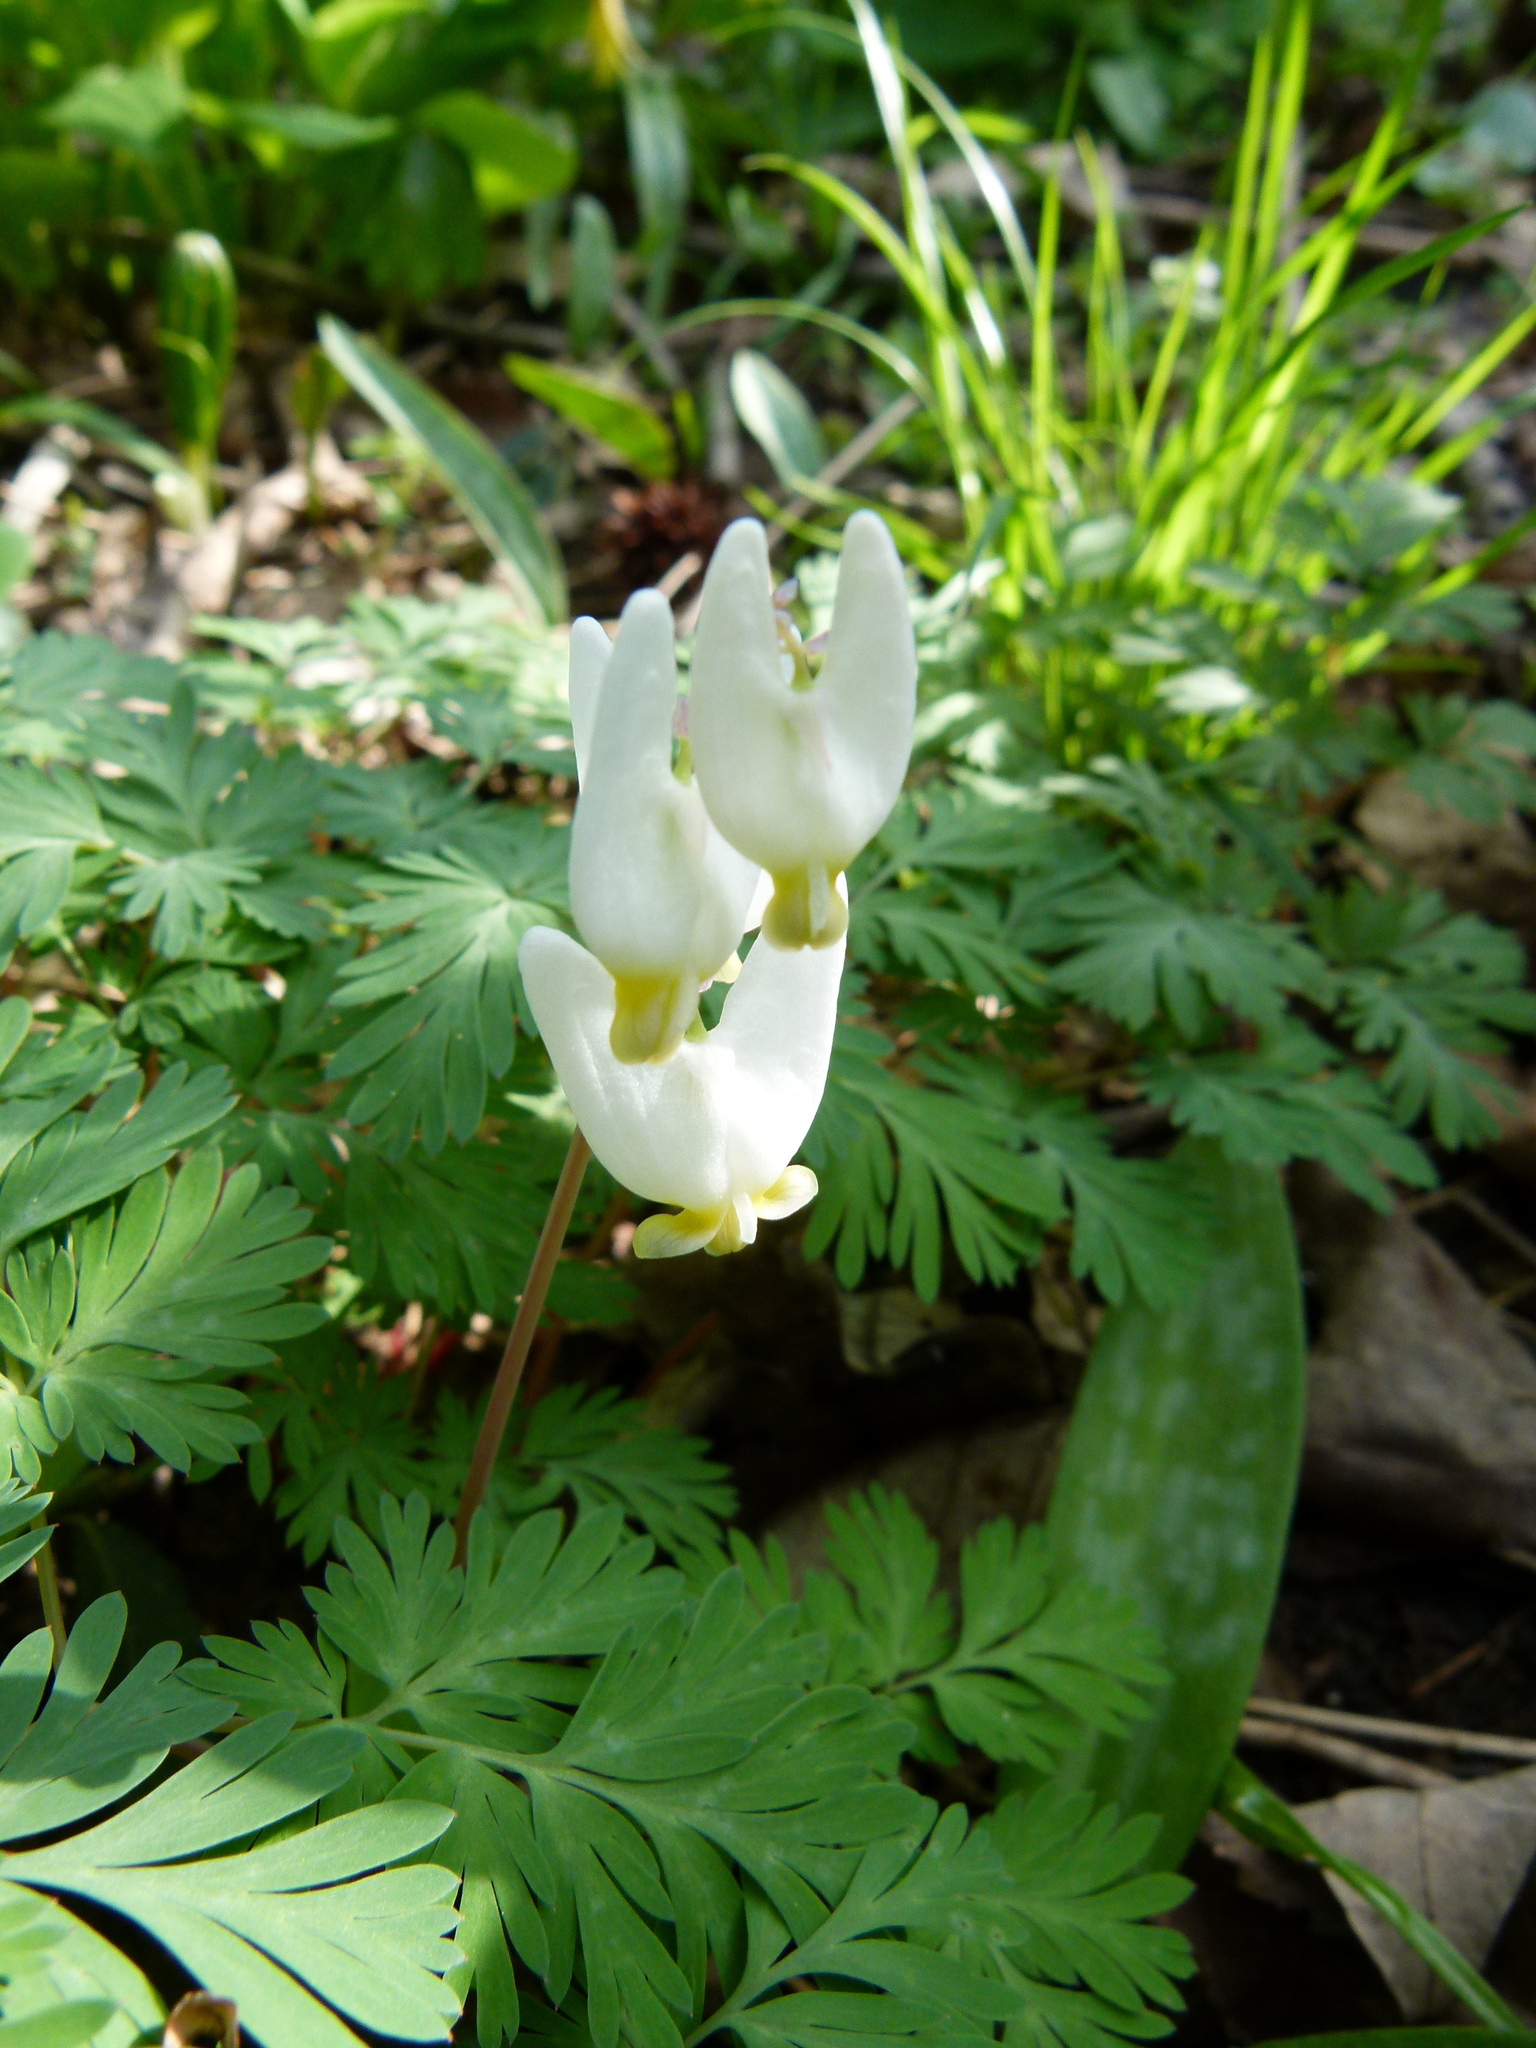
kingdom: Plantae
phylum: Tracheophyta
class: Magnoliopsida
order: Ranunculales
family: Papaveraceae
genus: Dicentra
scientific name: Dicentra cucullaria
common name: Dutchman's breeches
